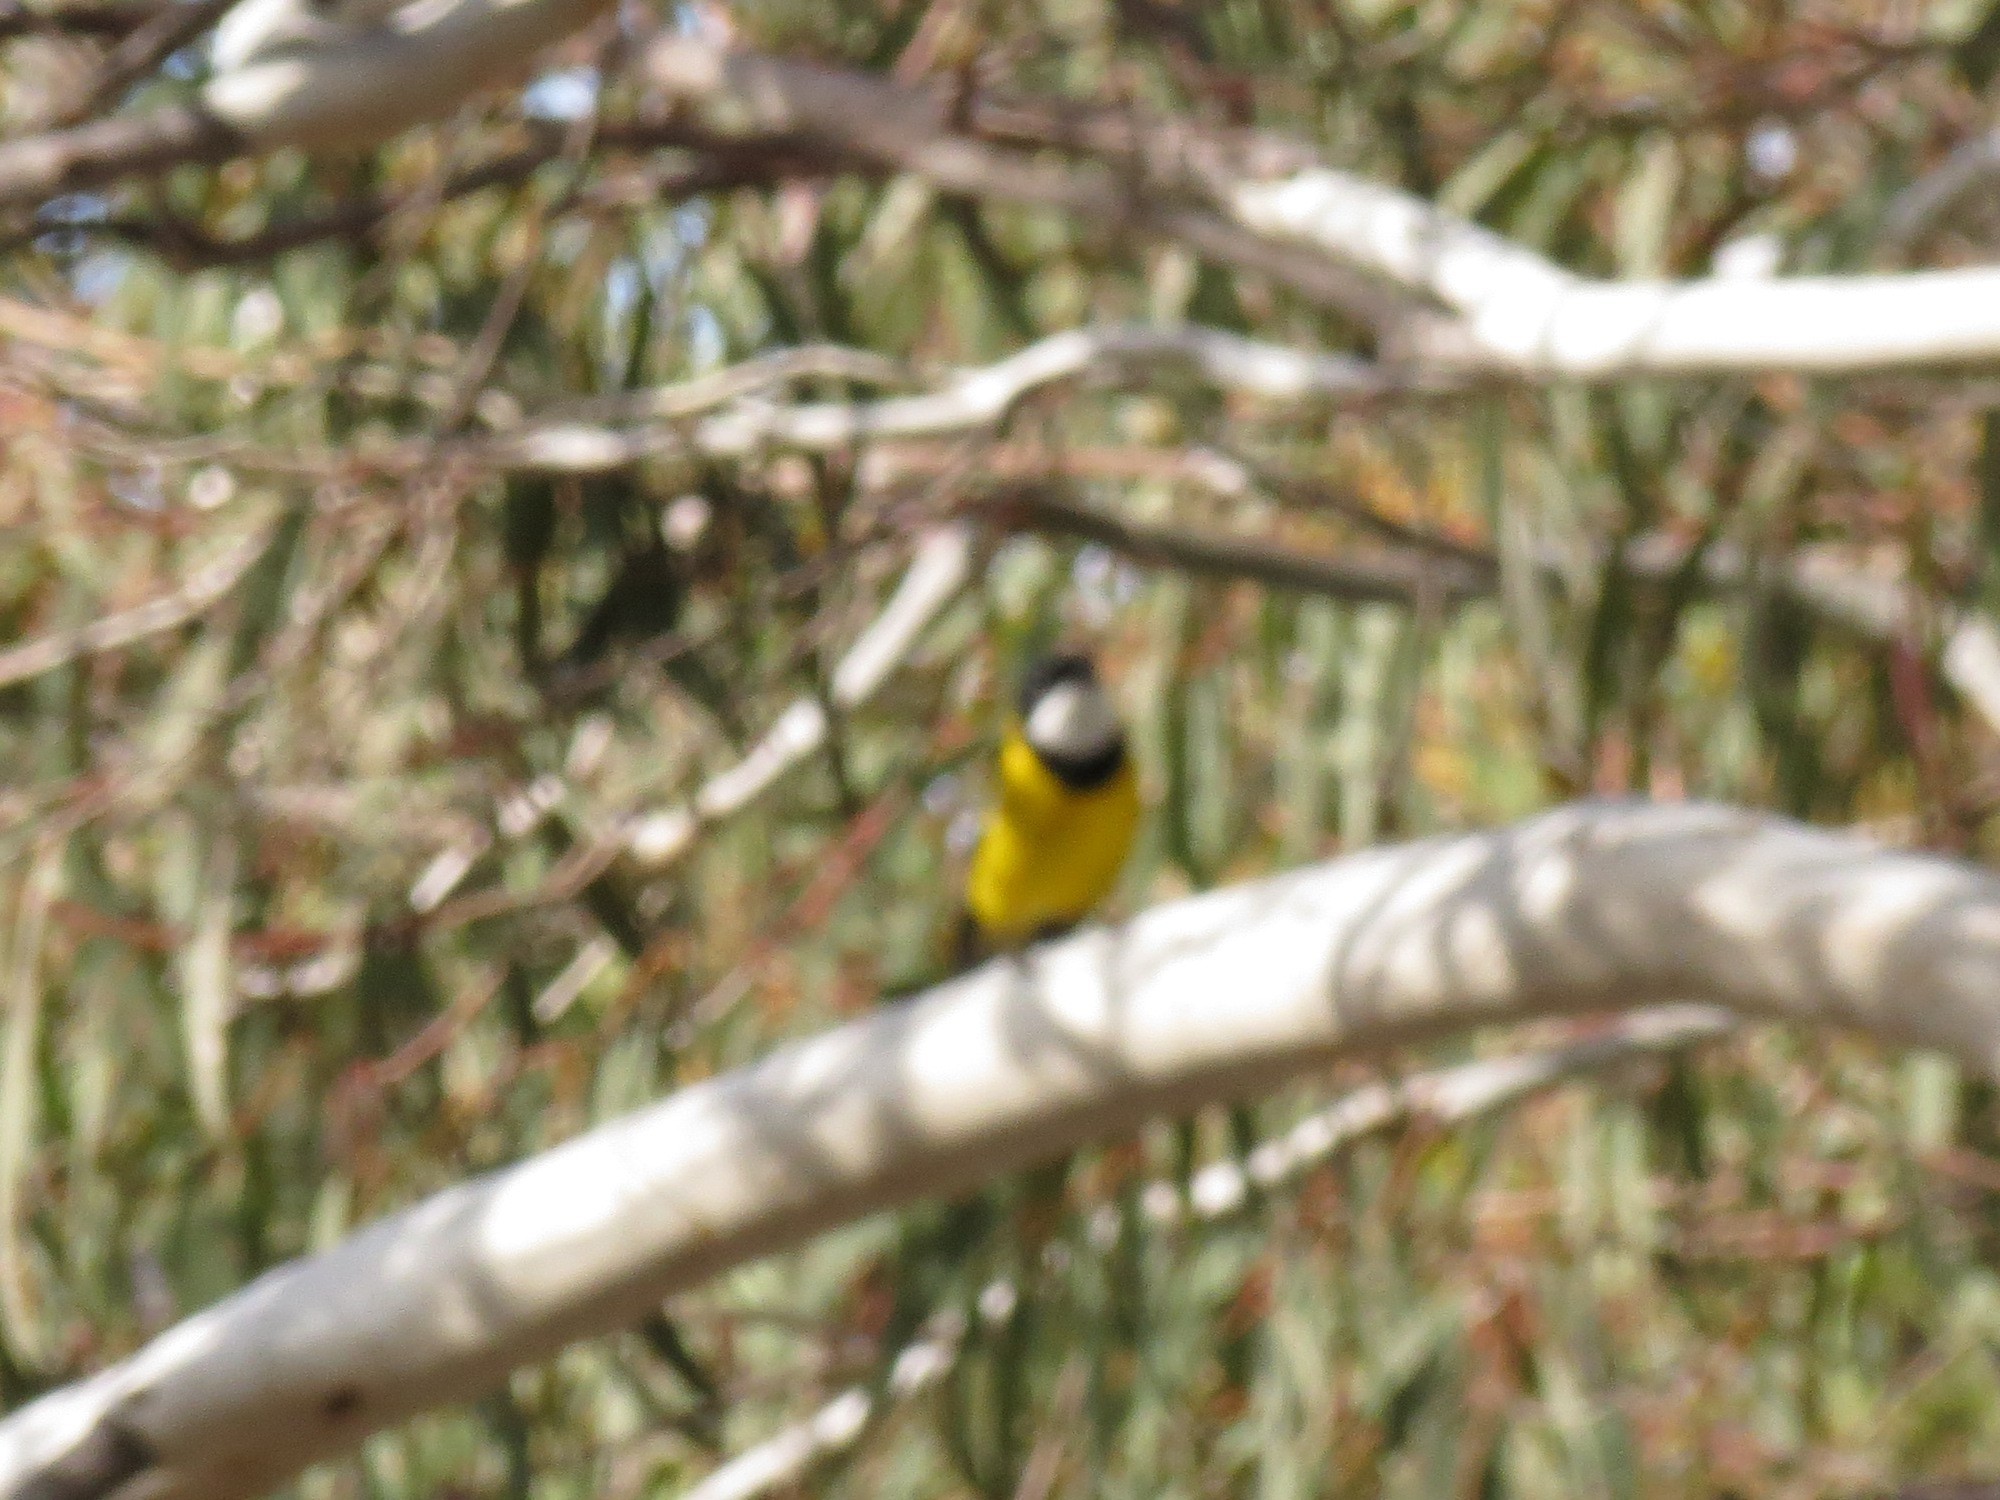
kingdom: Animalia
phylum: Chordata
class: Aves
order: Passeriformes
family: Pachycephalidae
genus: Pachycephala
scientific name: Pachycephala pectoralis
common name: Australian golden whistler
